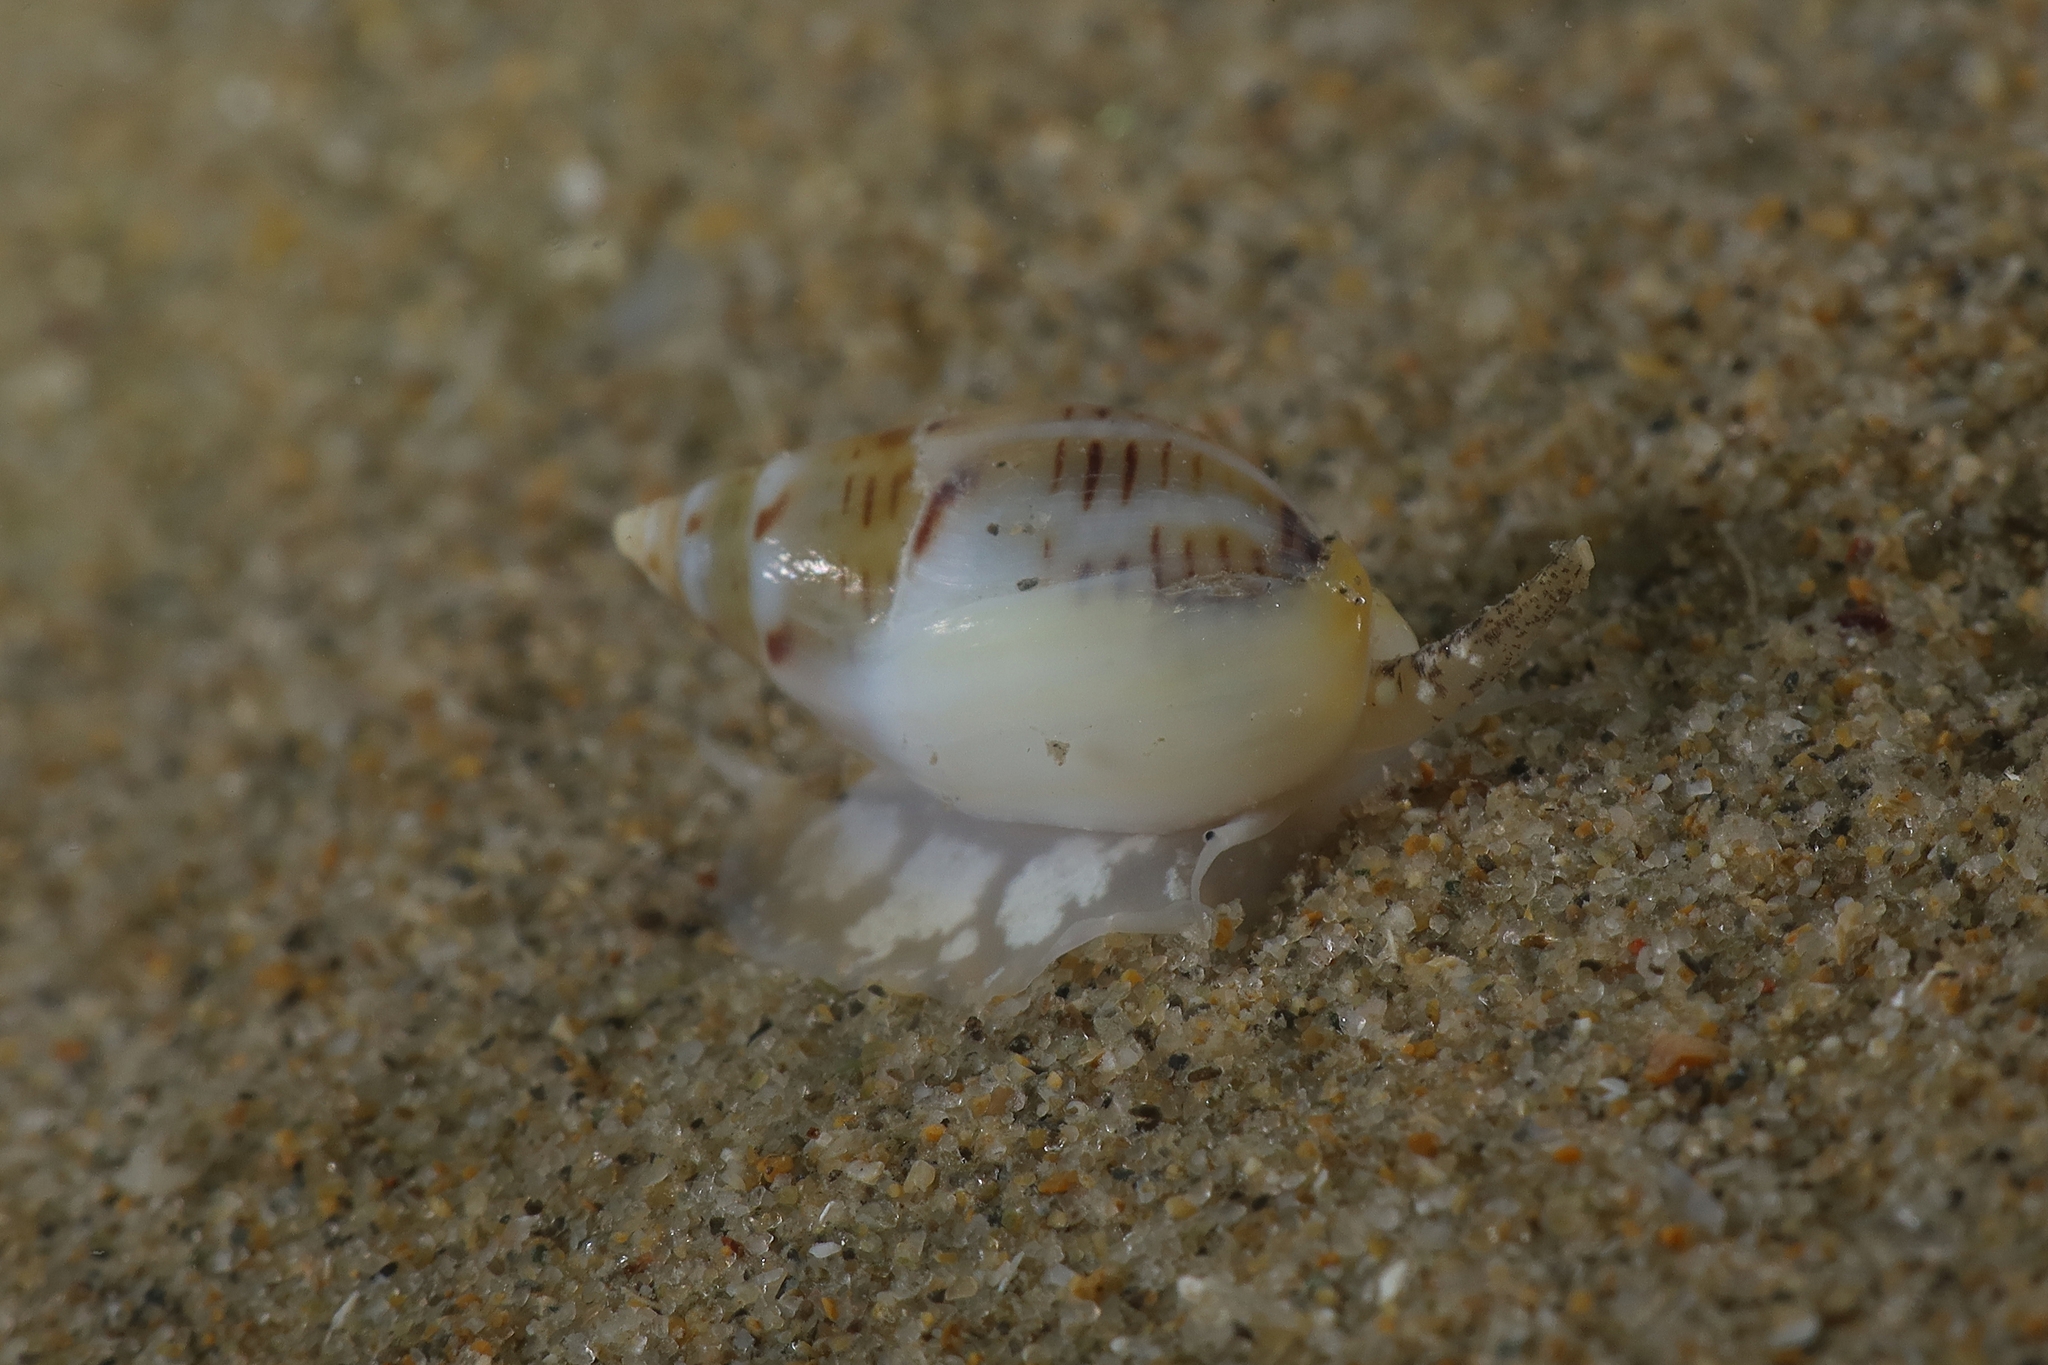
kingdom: Animalia
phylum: Mollusca
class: Gastropoda
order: Neogastropoda
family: Nassariidae
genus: Tritia
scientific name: Tritia grana
